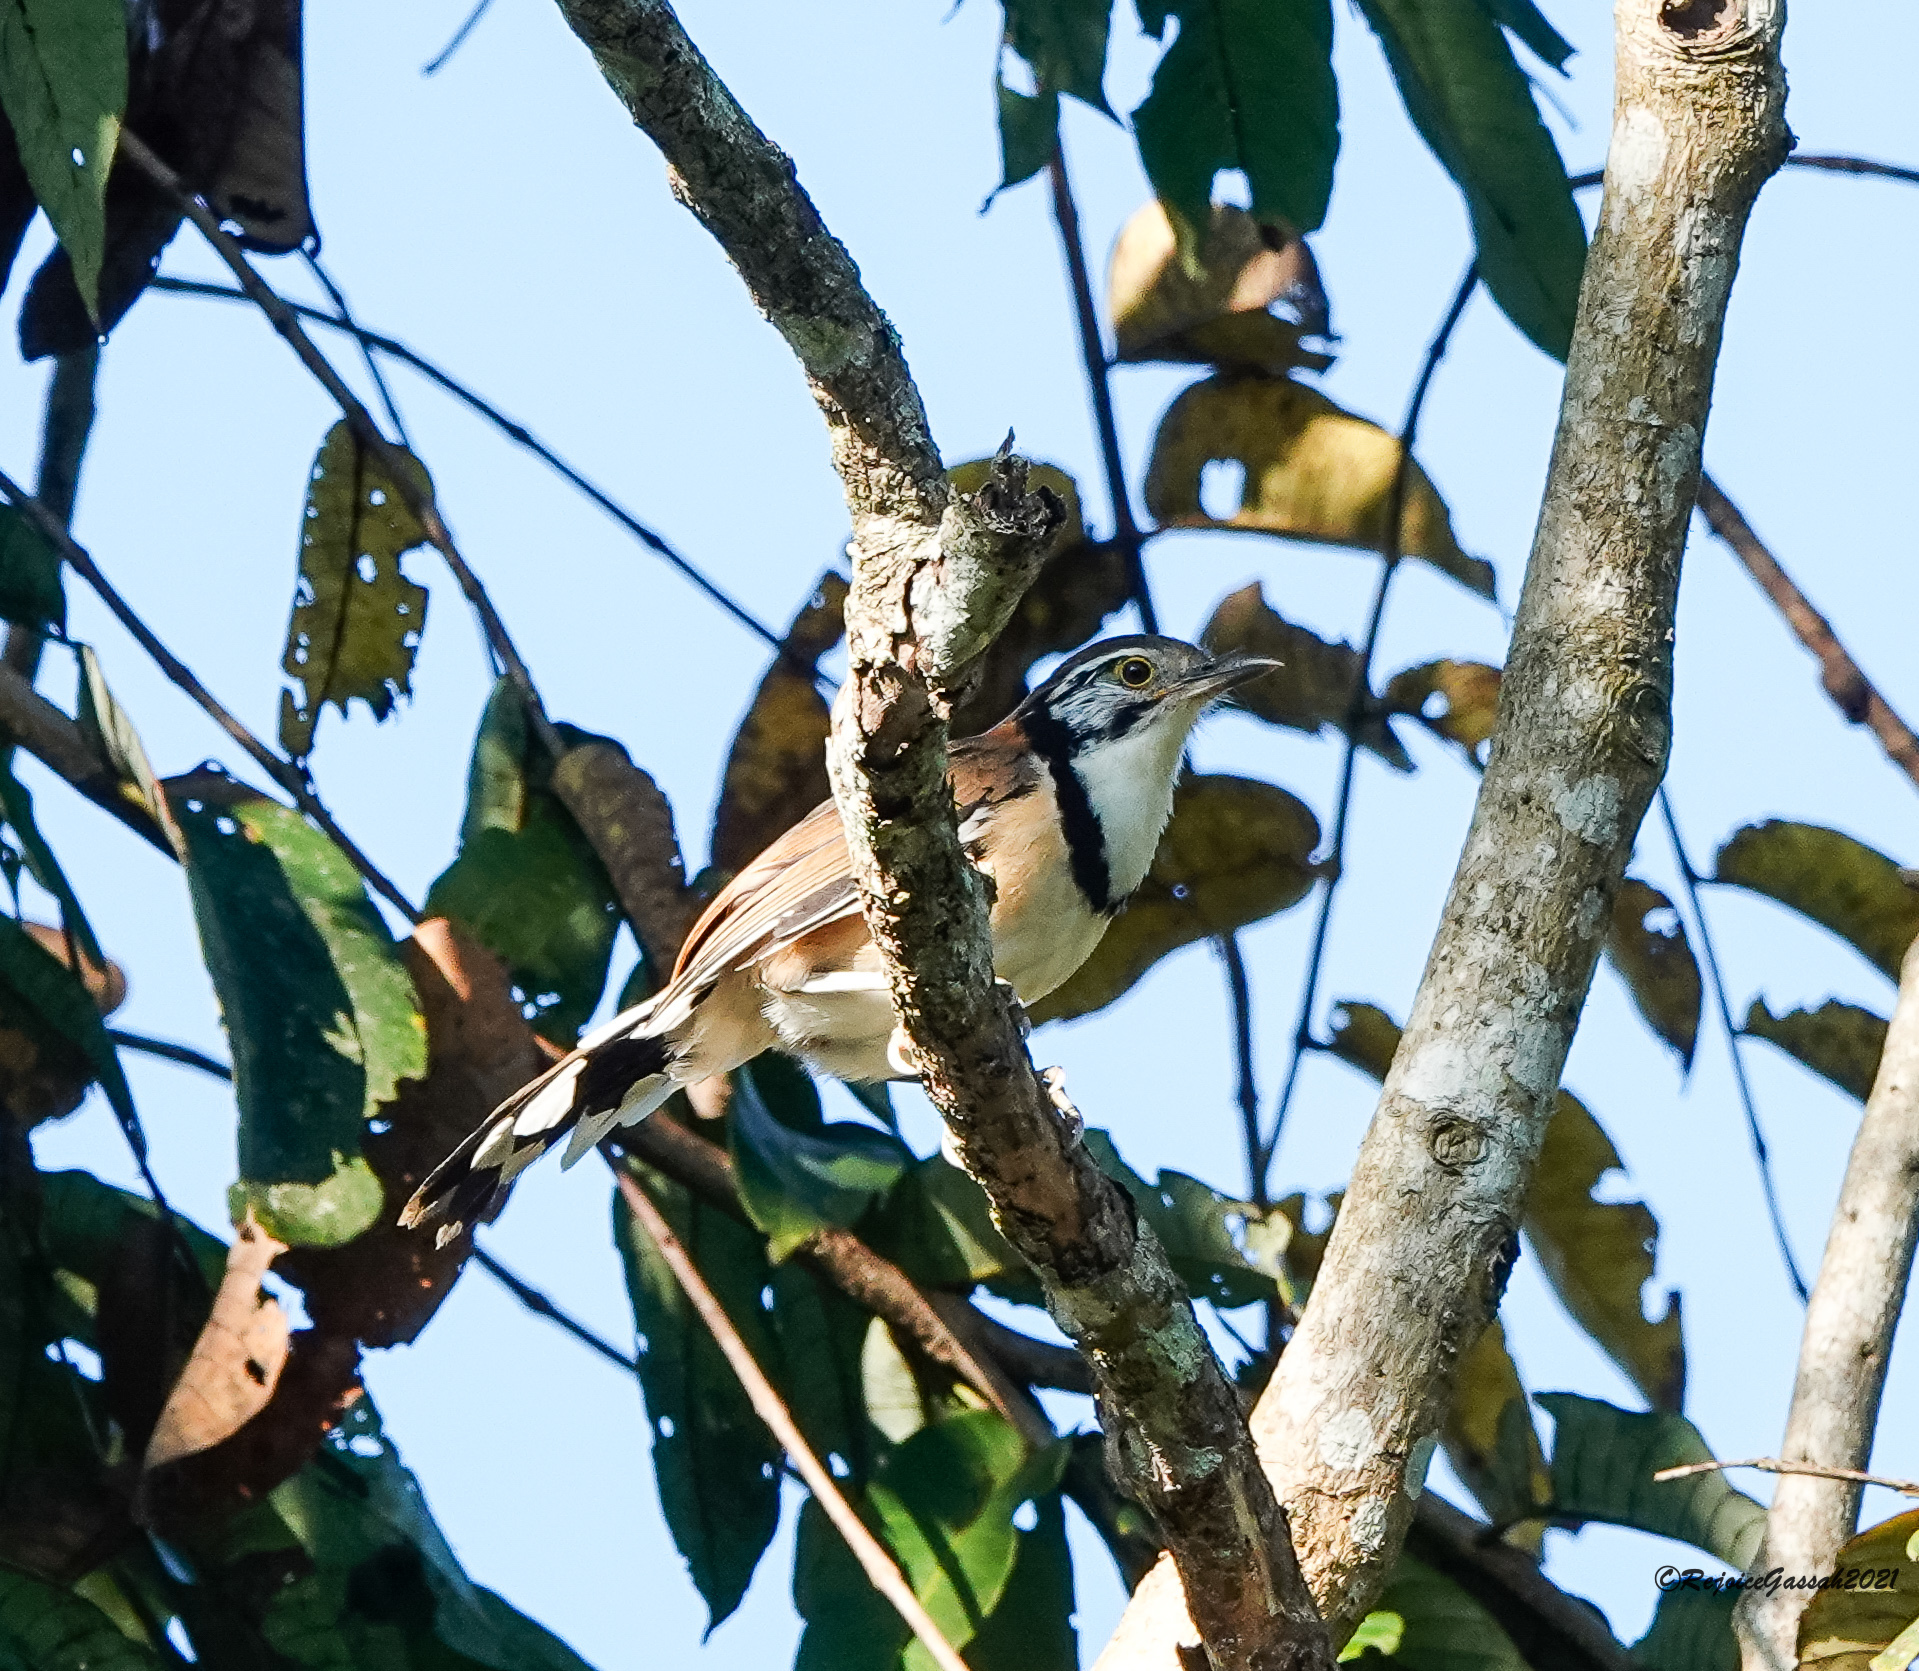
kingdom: Animalia
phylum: Chordata
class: Aves
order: Passeriformes
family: Leiothrichidae
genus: Garrulax
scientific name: Garrulax pectoralis
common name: Greater necklaced laughingthrush
